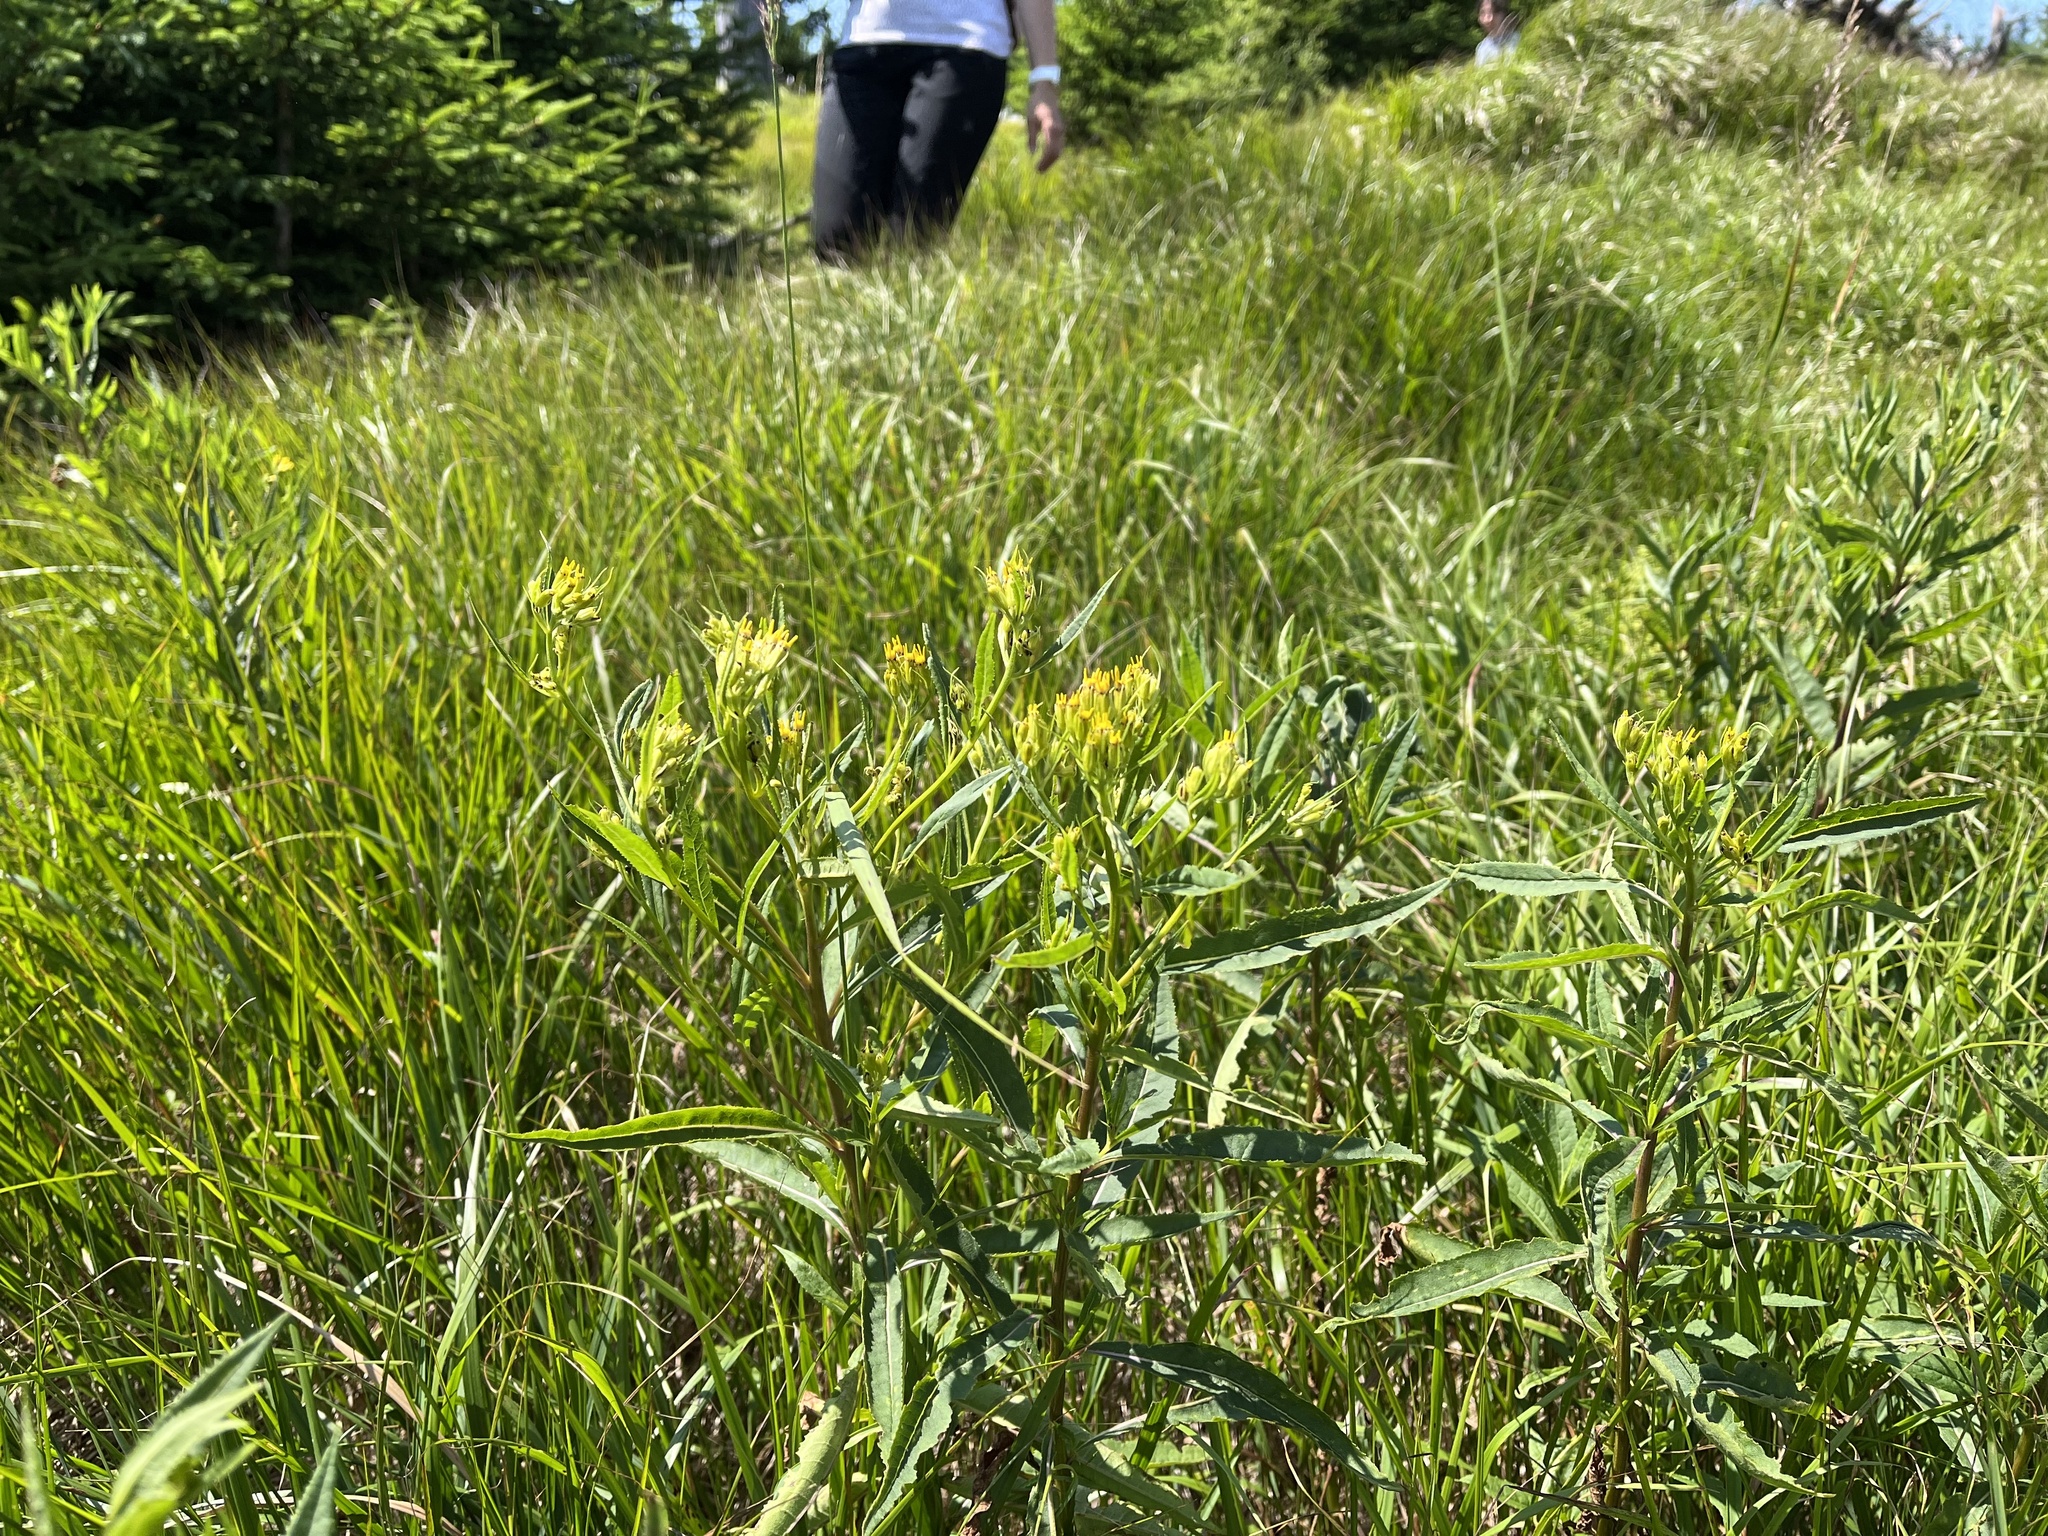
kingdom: Plantae
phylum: Tracheophyta
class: Magnoliopsida
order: Asterales
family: Asteraceae
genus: Senecio
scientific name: Senecio ovatus
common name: Wood ragwort
